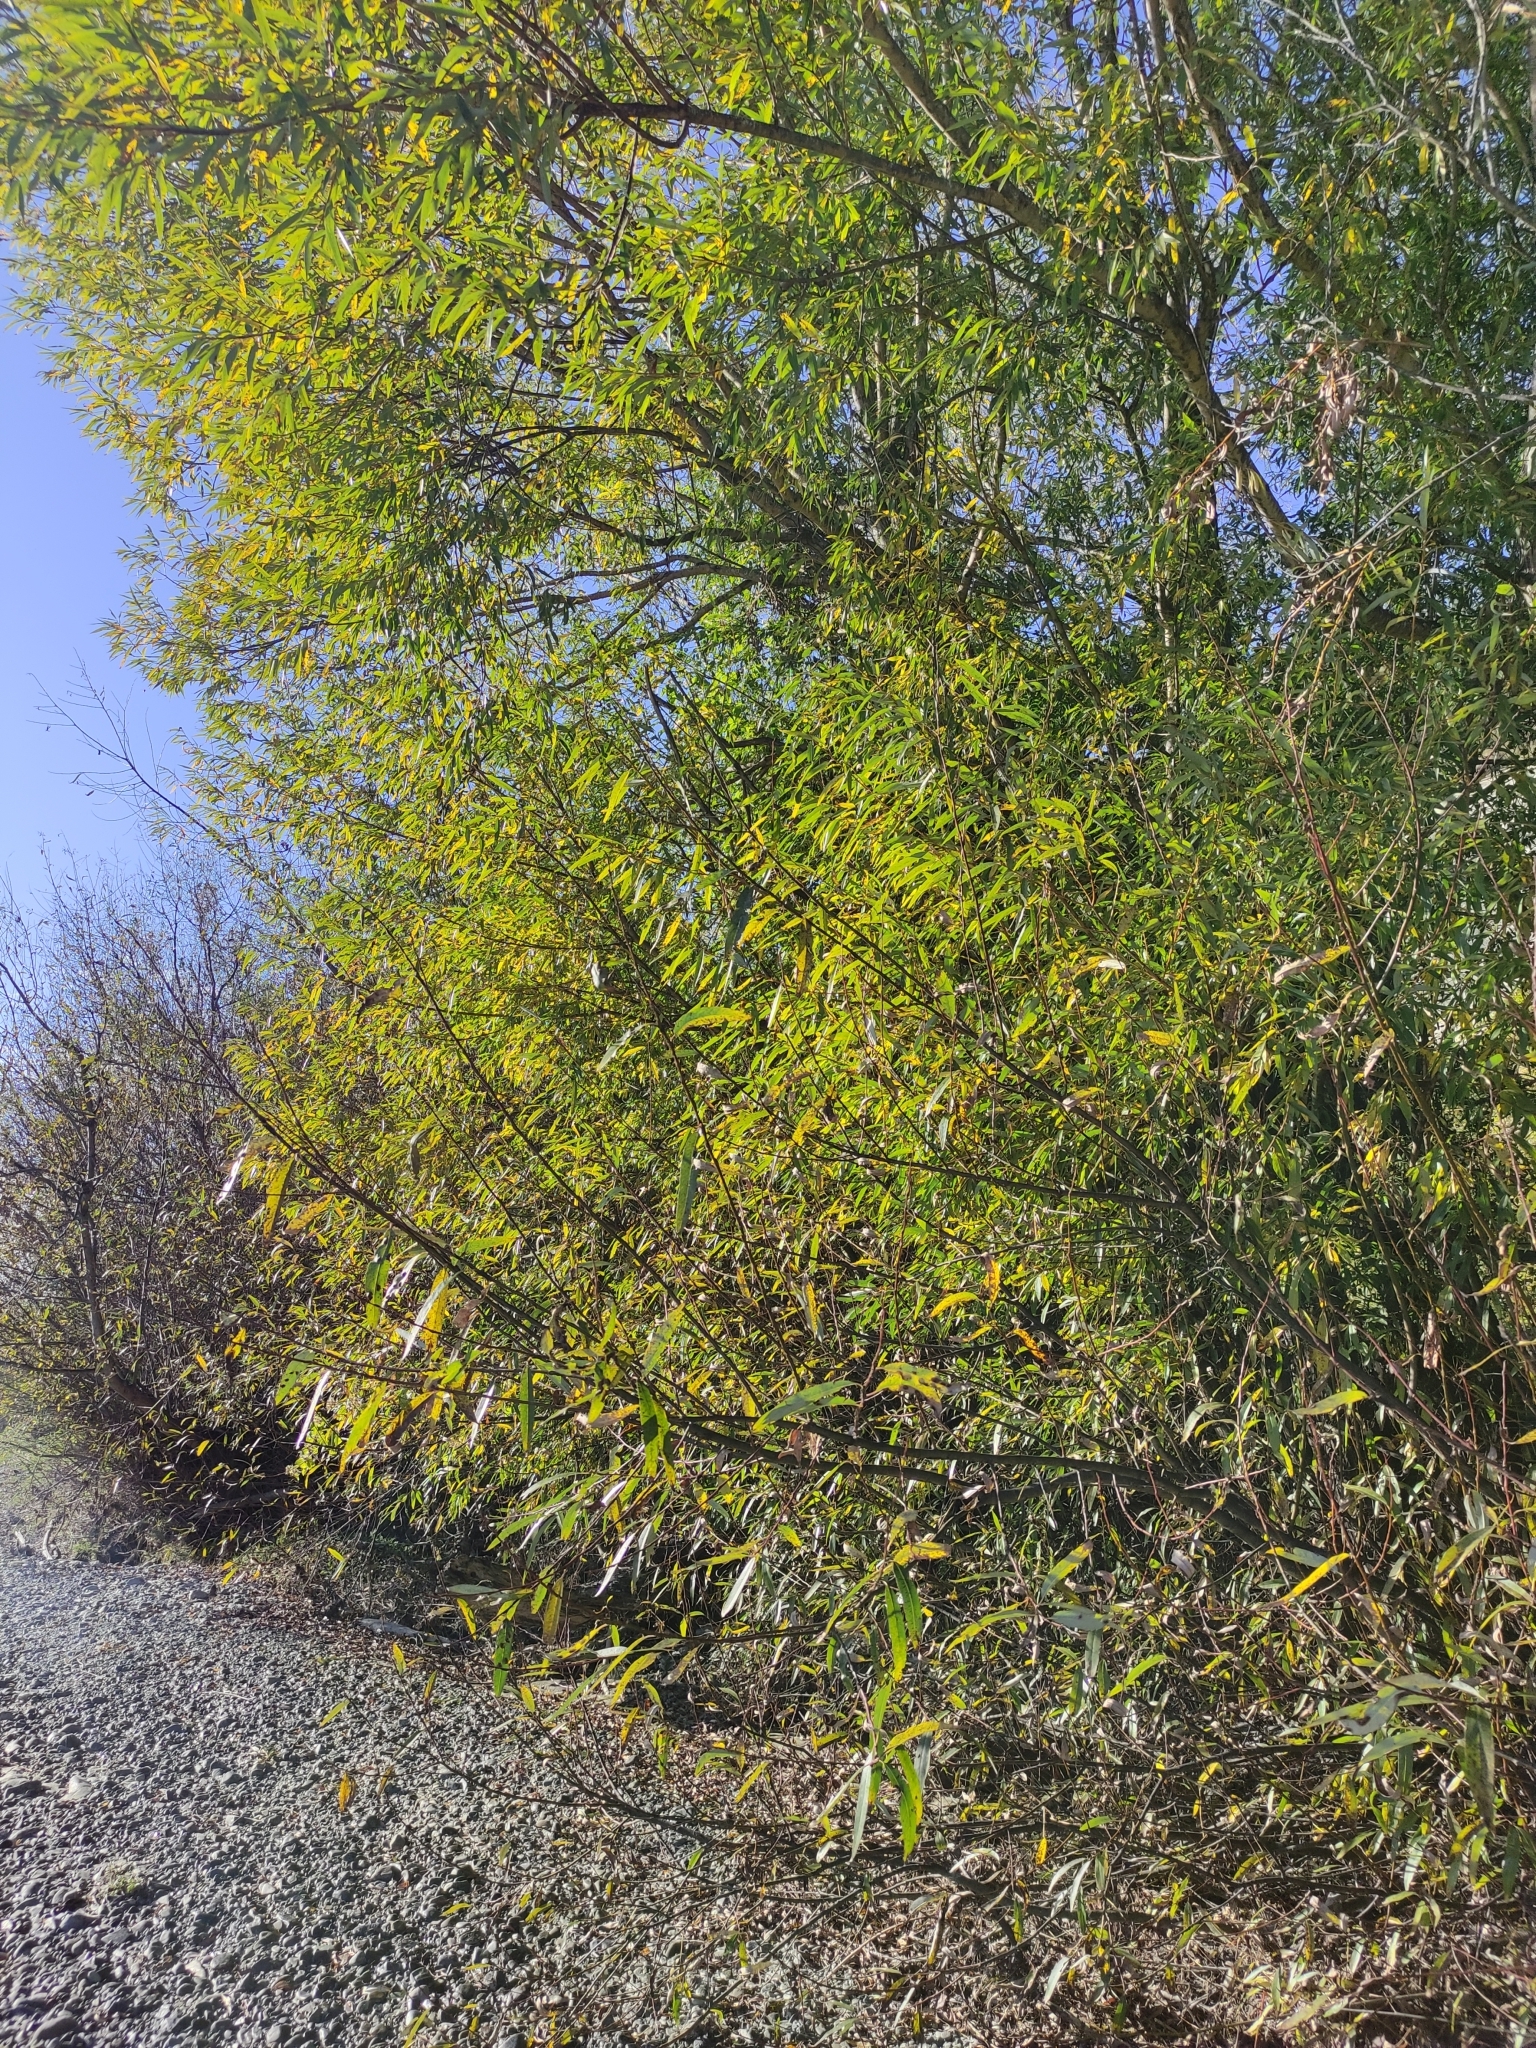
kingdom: Plantae
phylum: Tracheophyta
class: Magnoliopsida
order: Malpighiales
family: Salicaceae
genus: Salix
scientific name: Salix fragilis
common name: Crack willow
